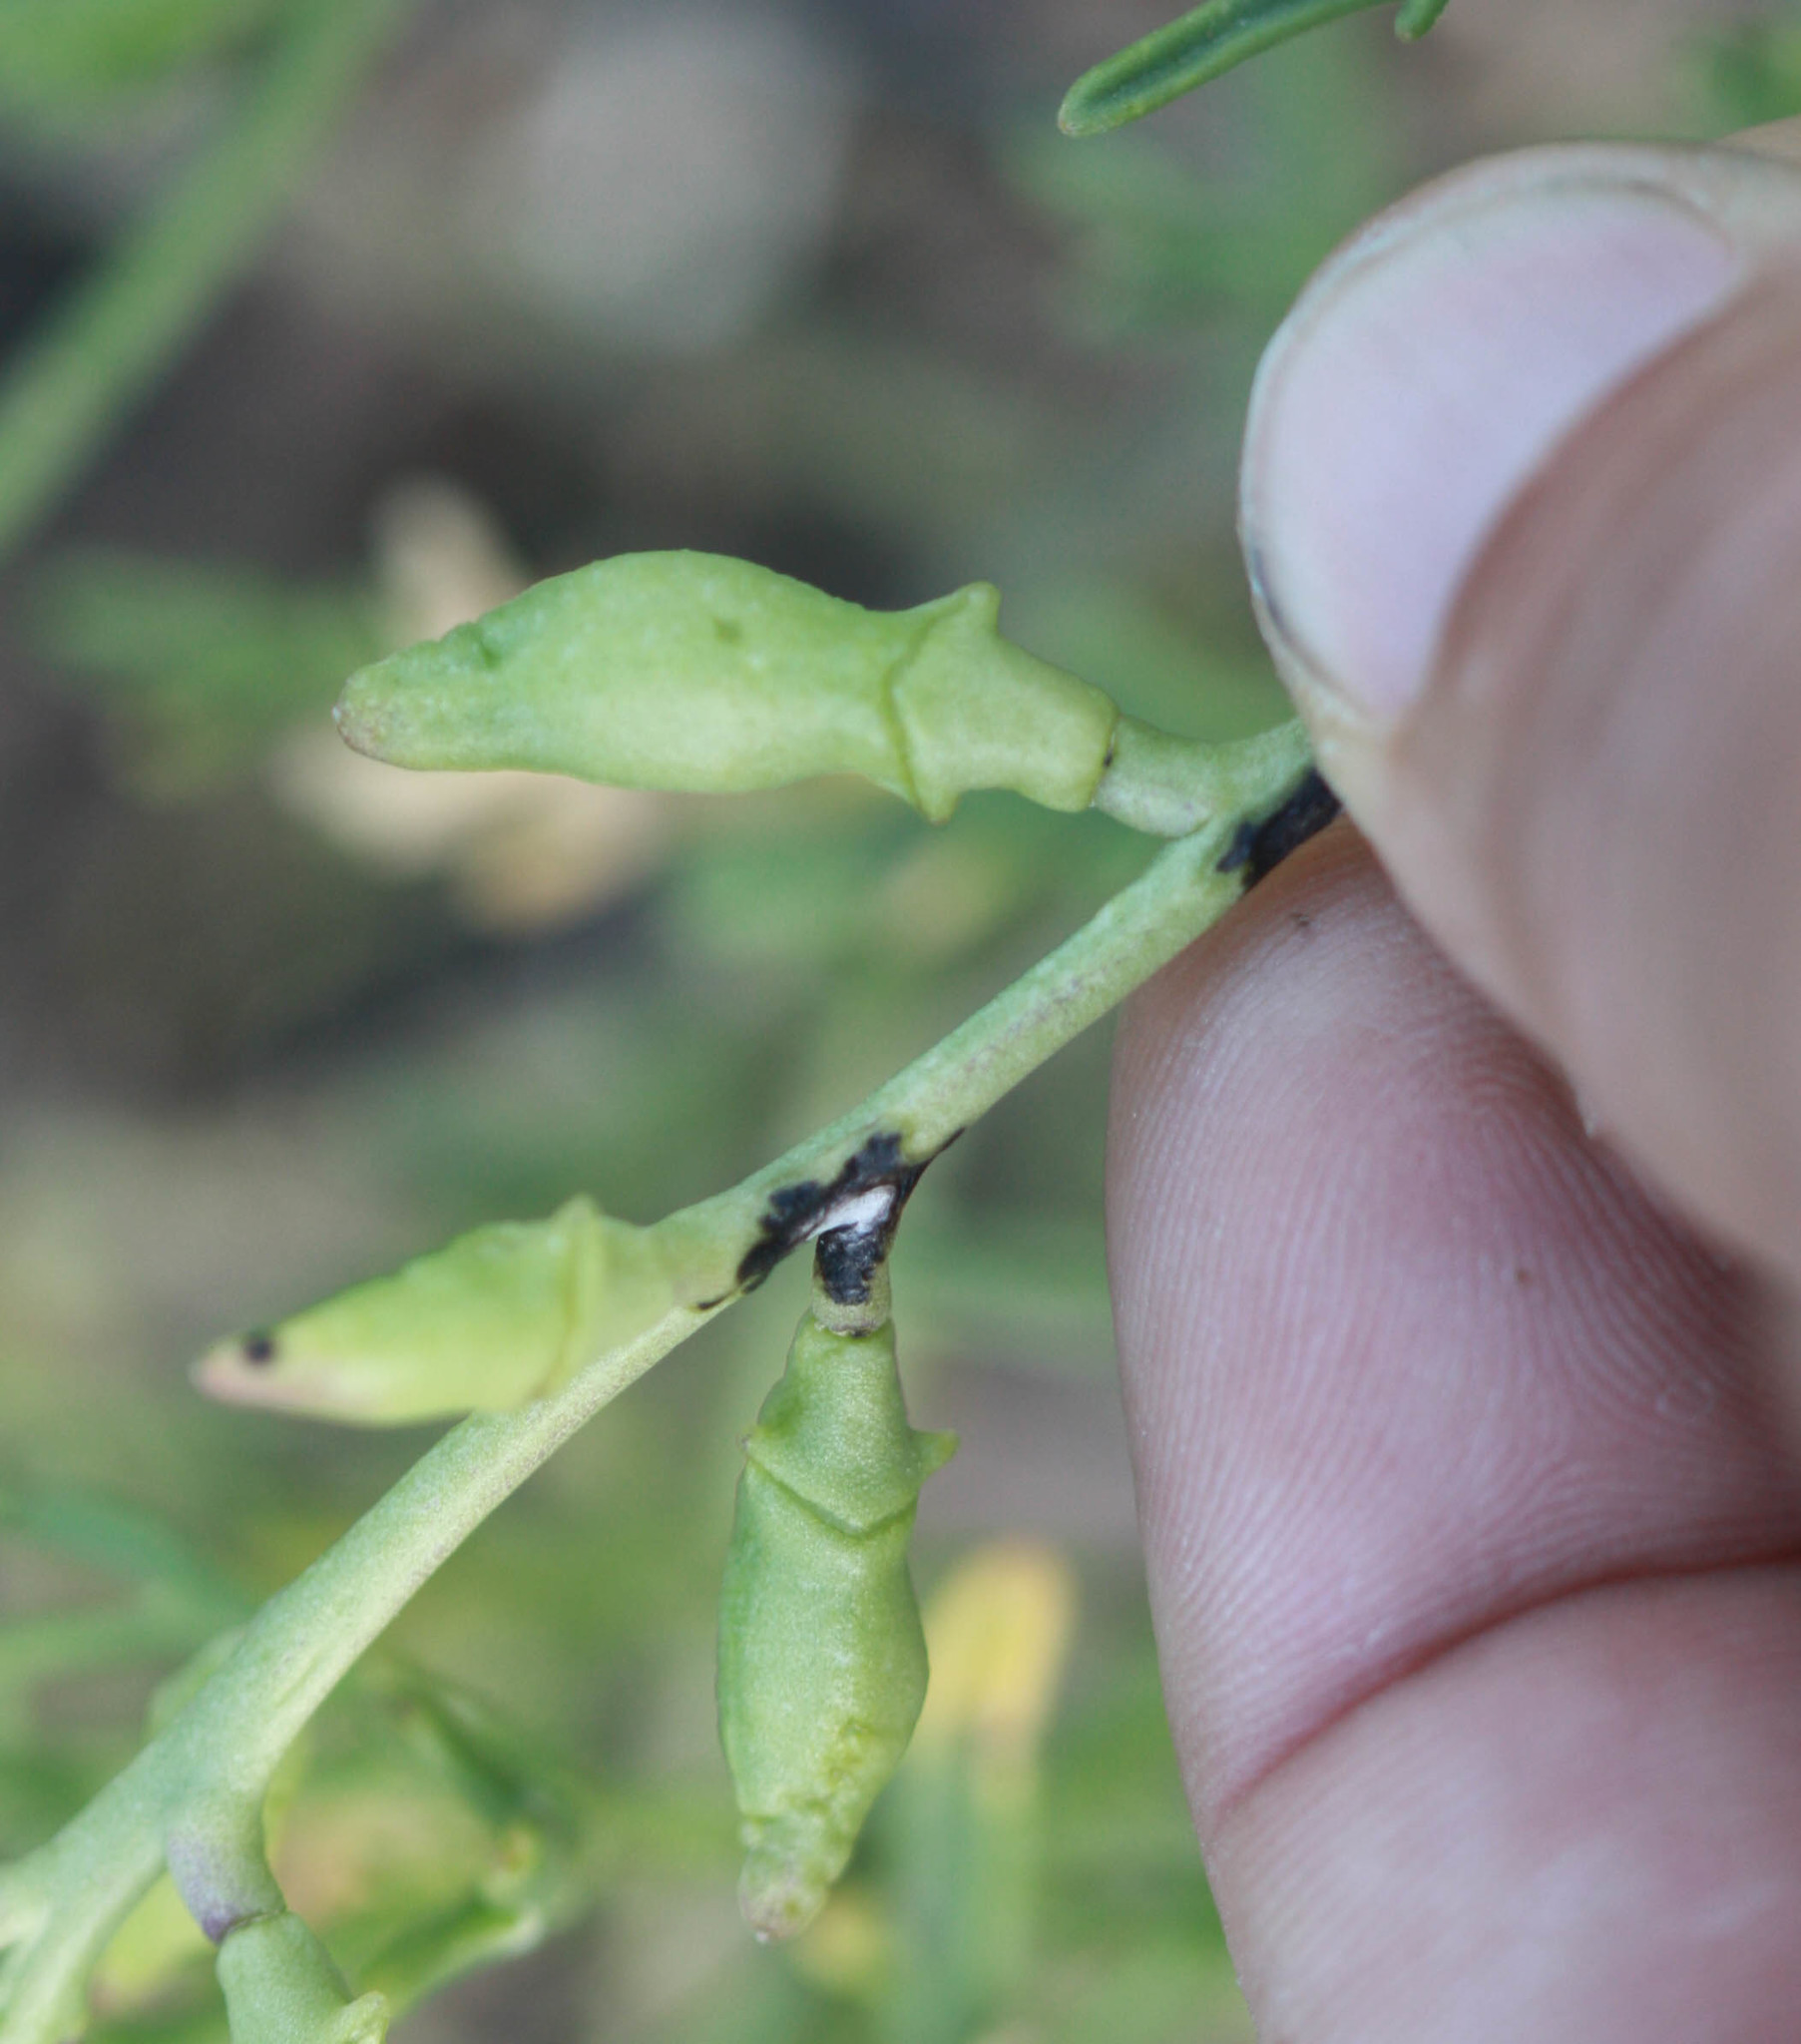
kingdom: Plantae
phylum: Tracheophyta
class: Magnoliopsida
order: Brassicales
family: Brassicaceae
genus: Cakile
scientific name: Cakile maritima
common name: Sea rocket
